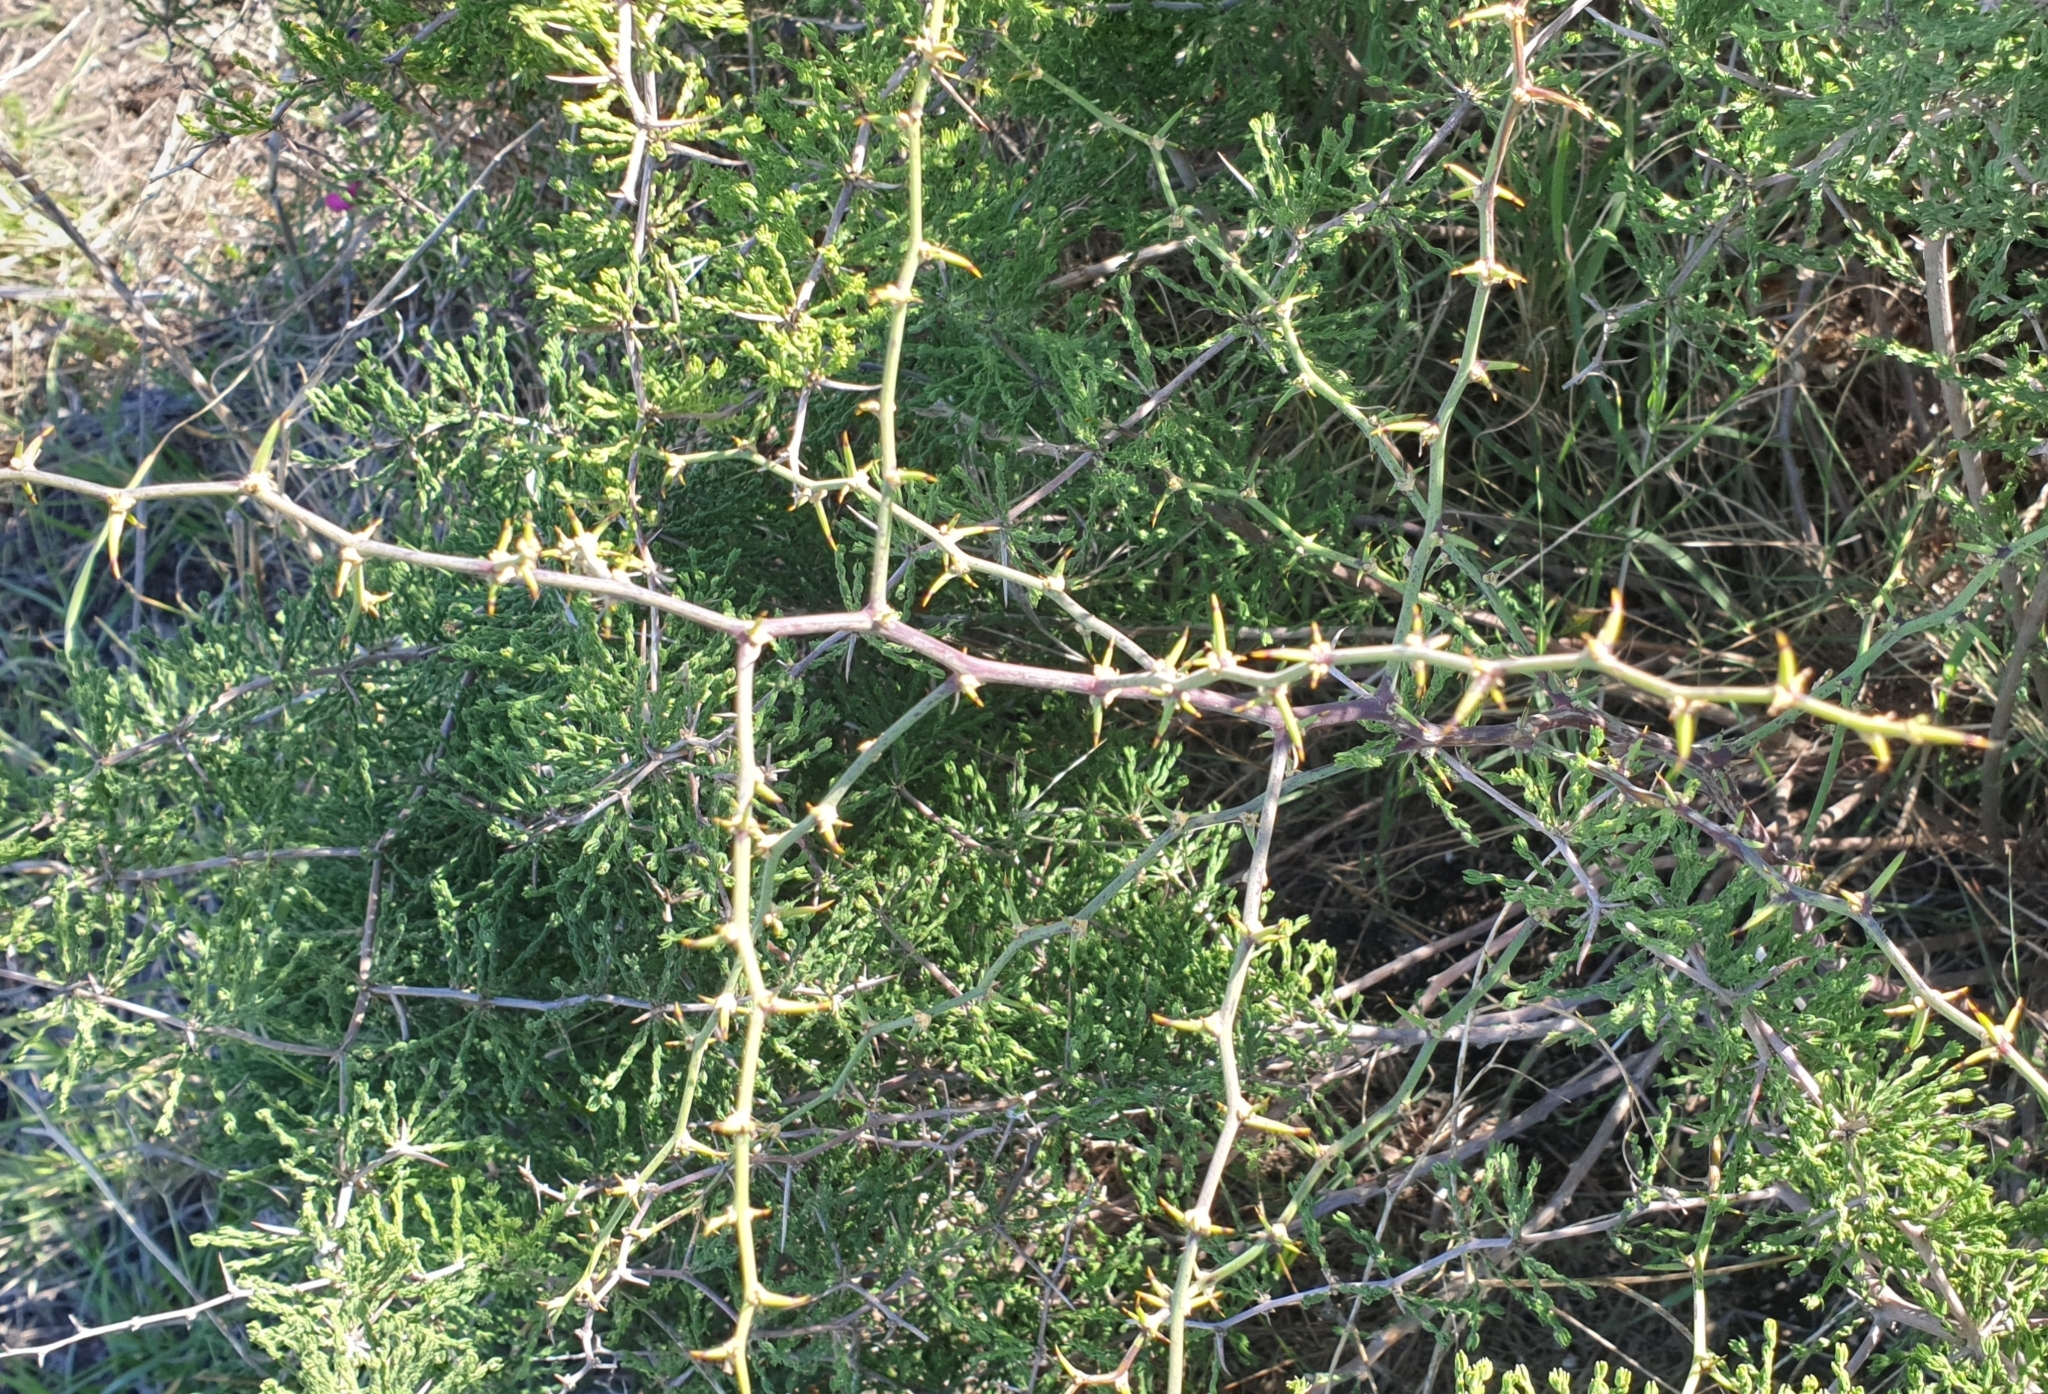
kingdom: Plantae
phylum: Tracheophyta
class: Liliopsida
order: Asparagales
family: Asparagaceae
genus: Asparagus
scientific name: Asparagus capensis
